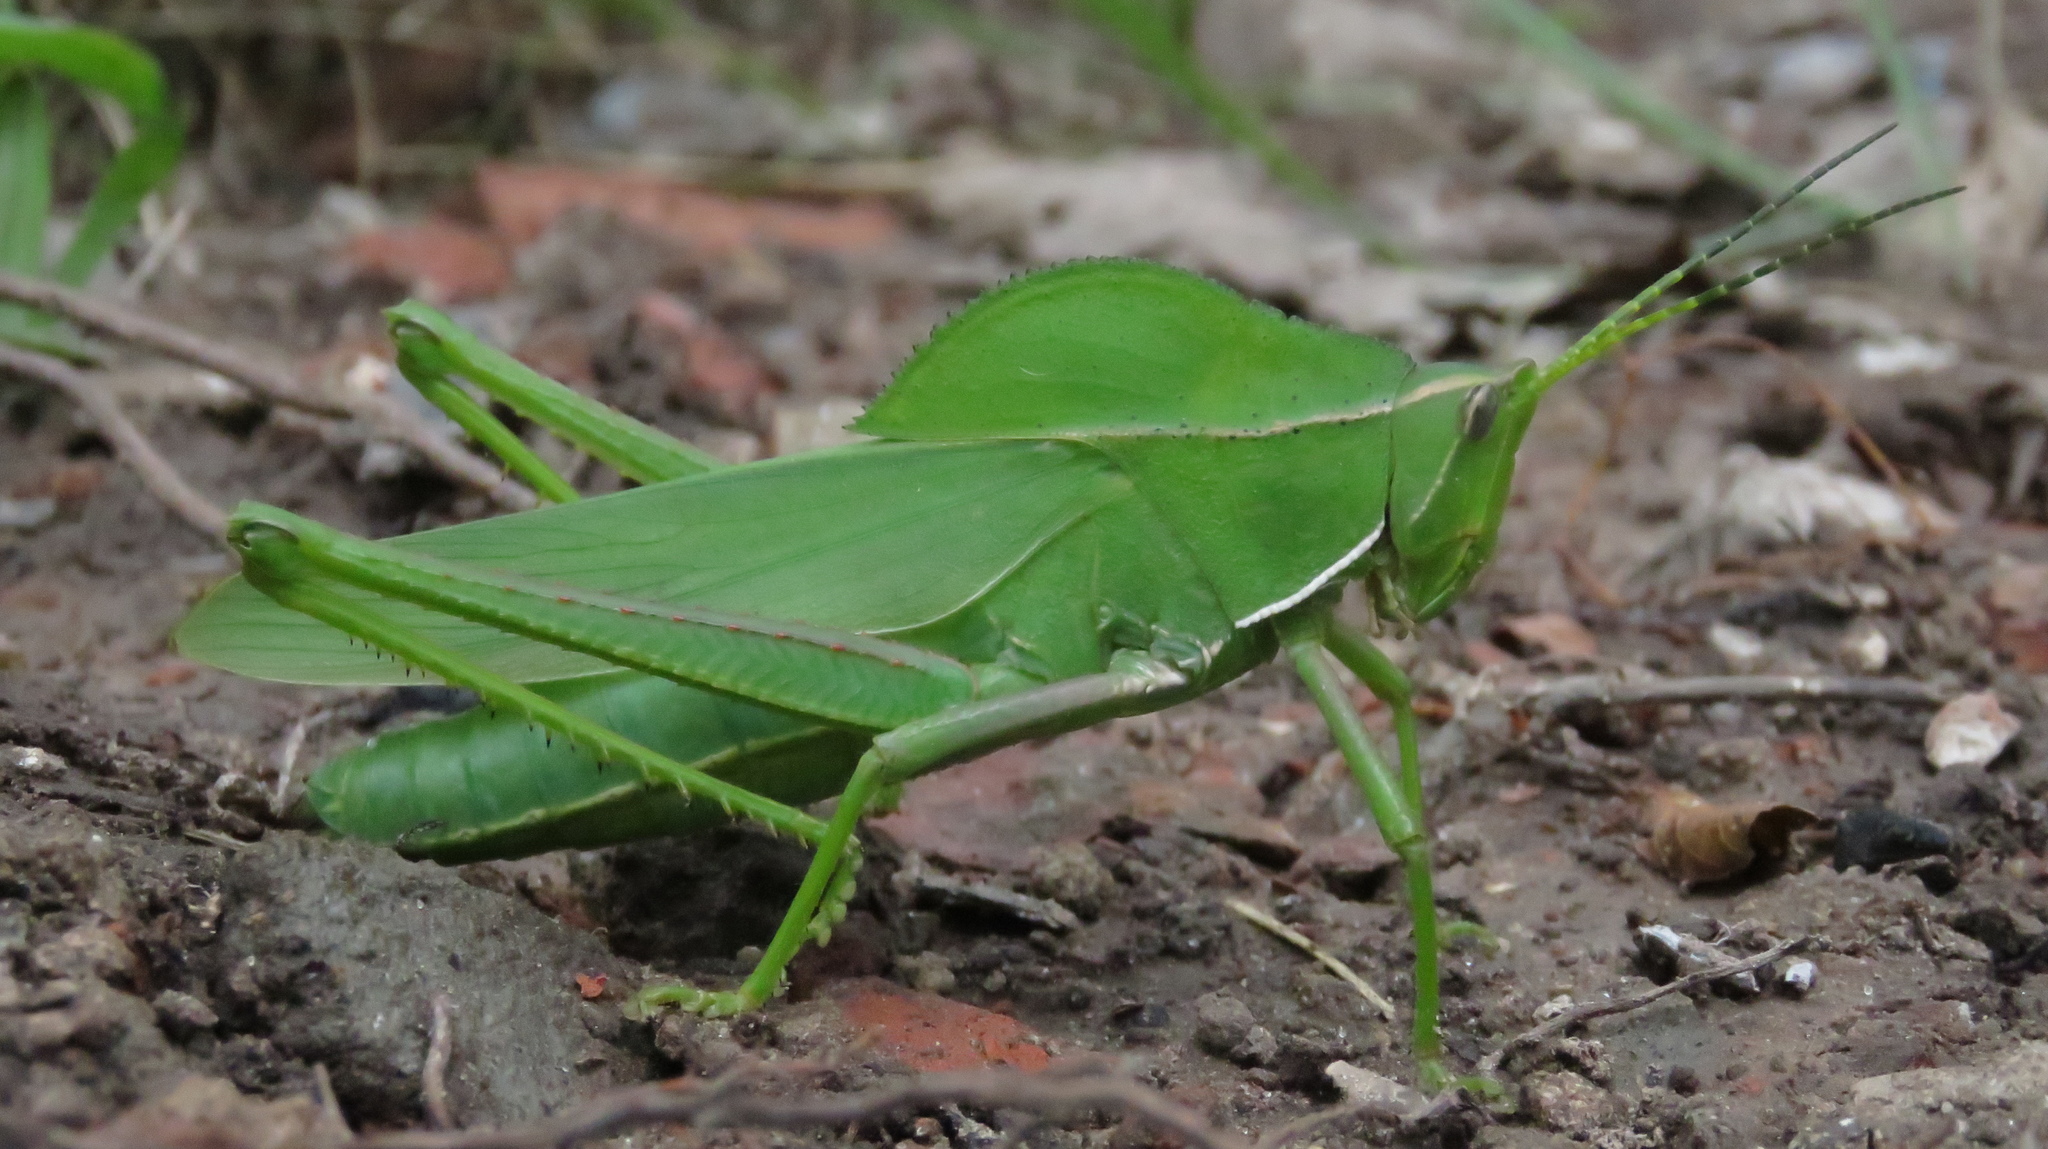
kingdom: Animalia
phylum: Arthropoda
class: Insecta
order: Orthoptera
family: Romaleidae
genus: Prionolopha
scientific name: Prionolopha serrata
